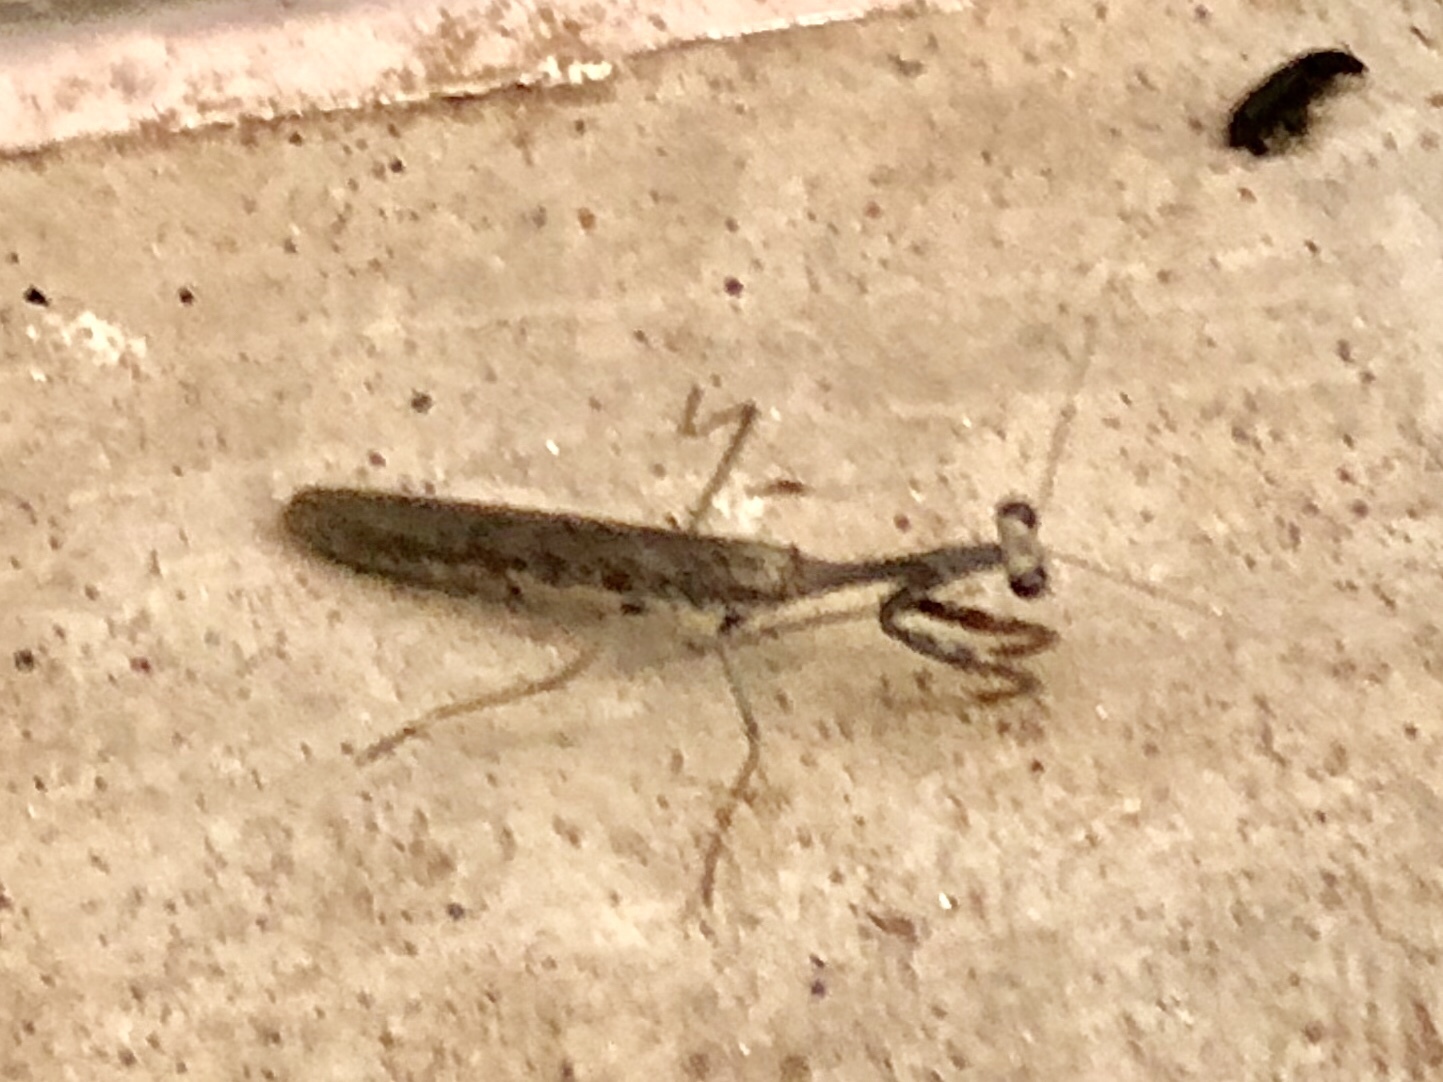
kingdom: Animalia
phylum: Arthropoda
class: Insecta
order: Mantodea
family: Mantidae
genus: Stagmomantis
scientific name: Stagmomantis californica
